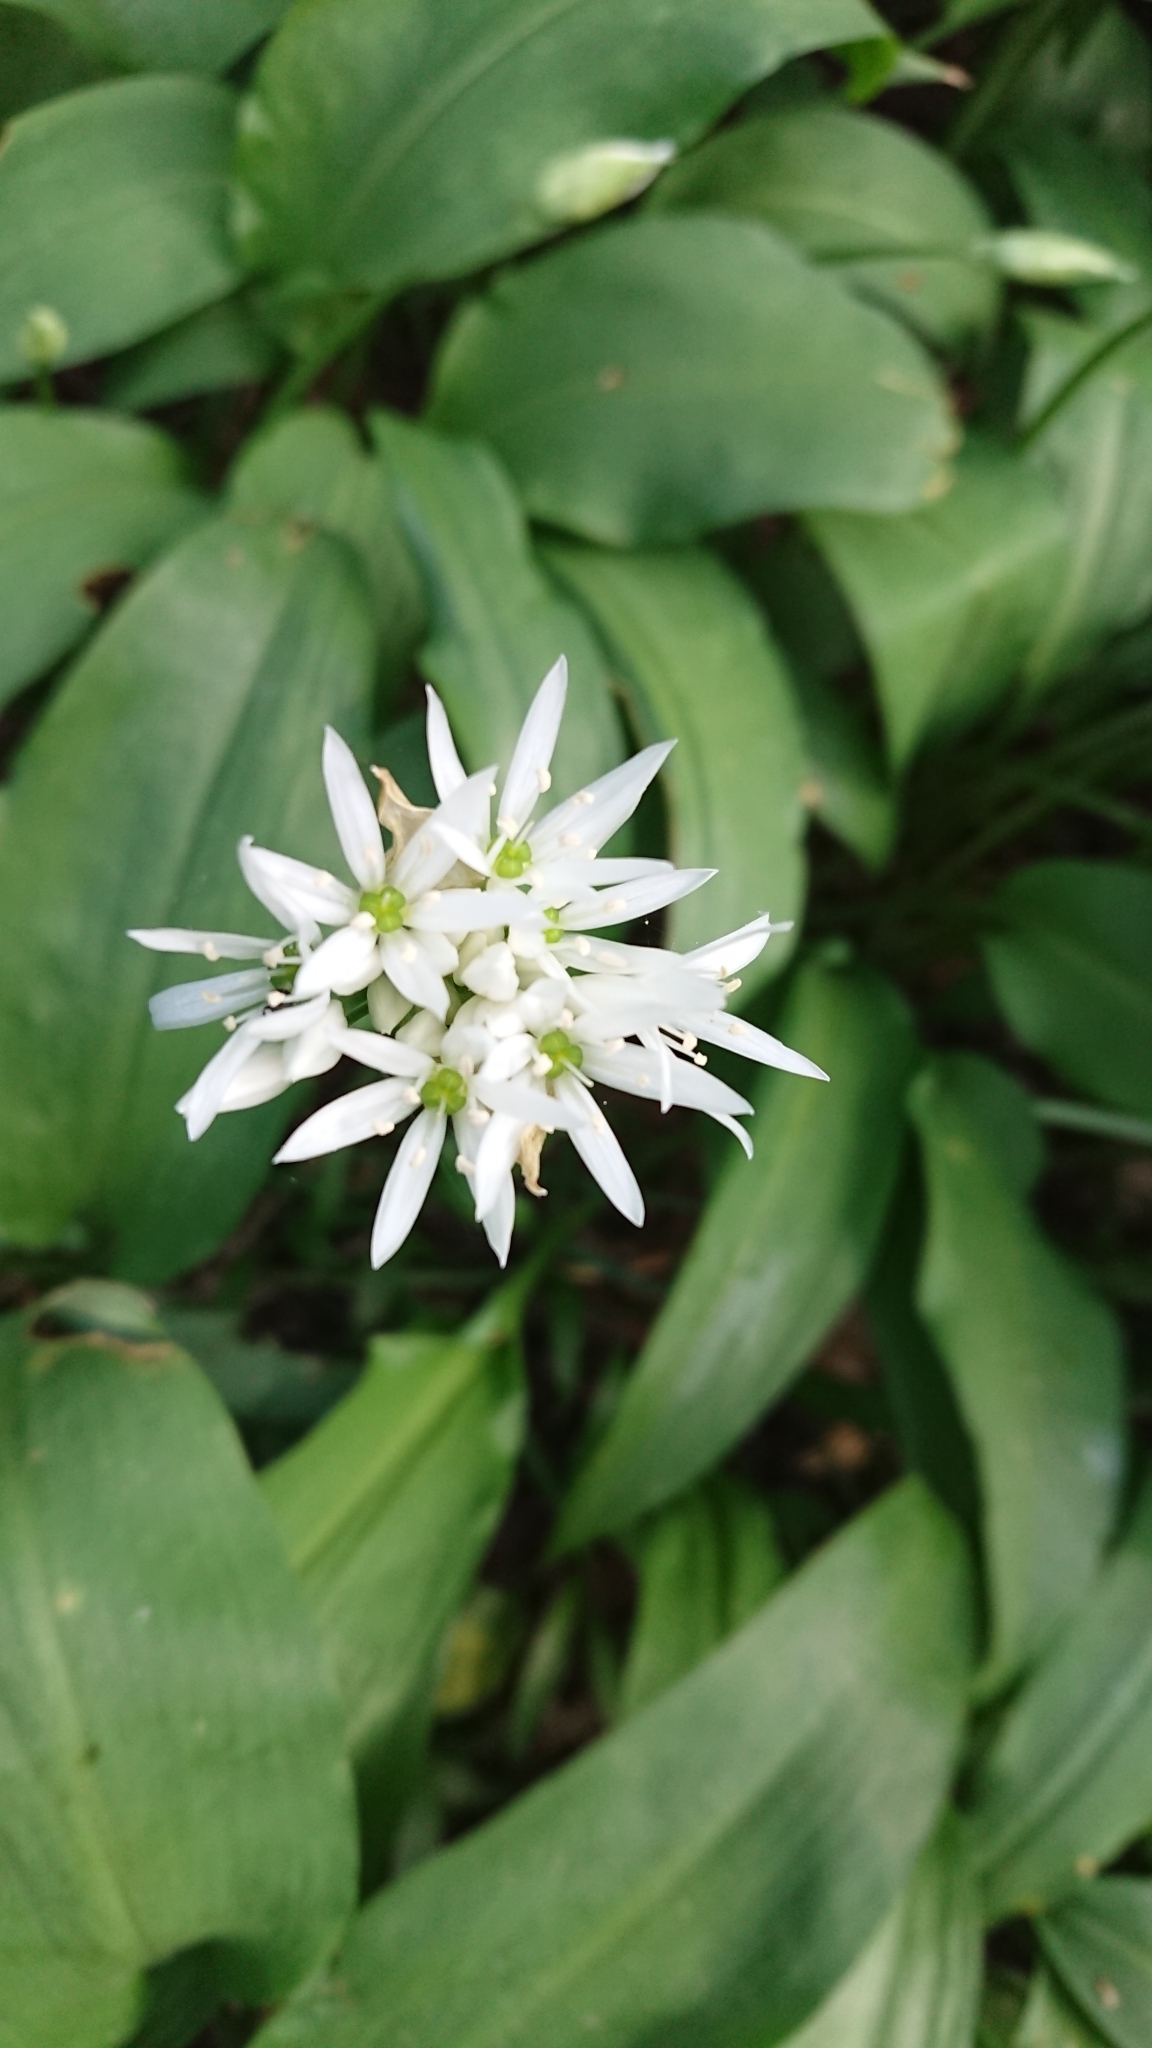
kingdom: Plantae
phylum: Tracheophyta
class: Liliopsida
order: Asparagales
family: Amaryllidaceae
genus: Allium
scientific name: Allium ursinum
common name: Ramsons
